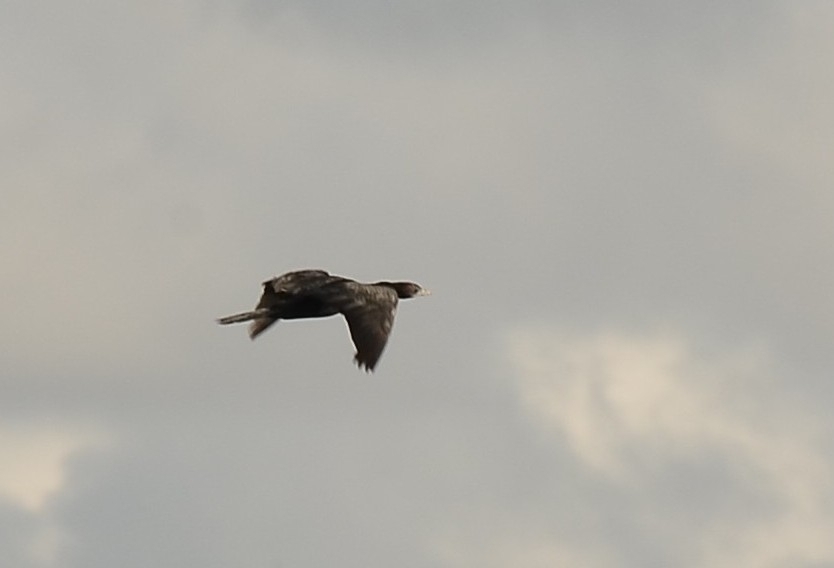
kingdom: Animalia
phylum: Chordata
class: Aves
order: Suliformes
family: Phalacrocoracidae
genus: Microcarbo
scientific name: Microcarbo niger
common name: Little cormorant
